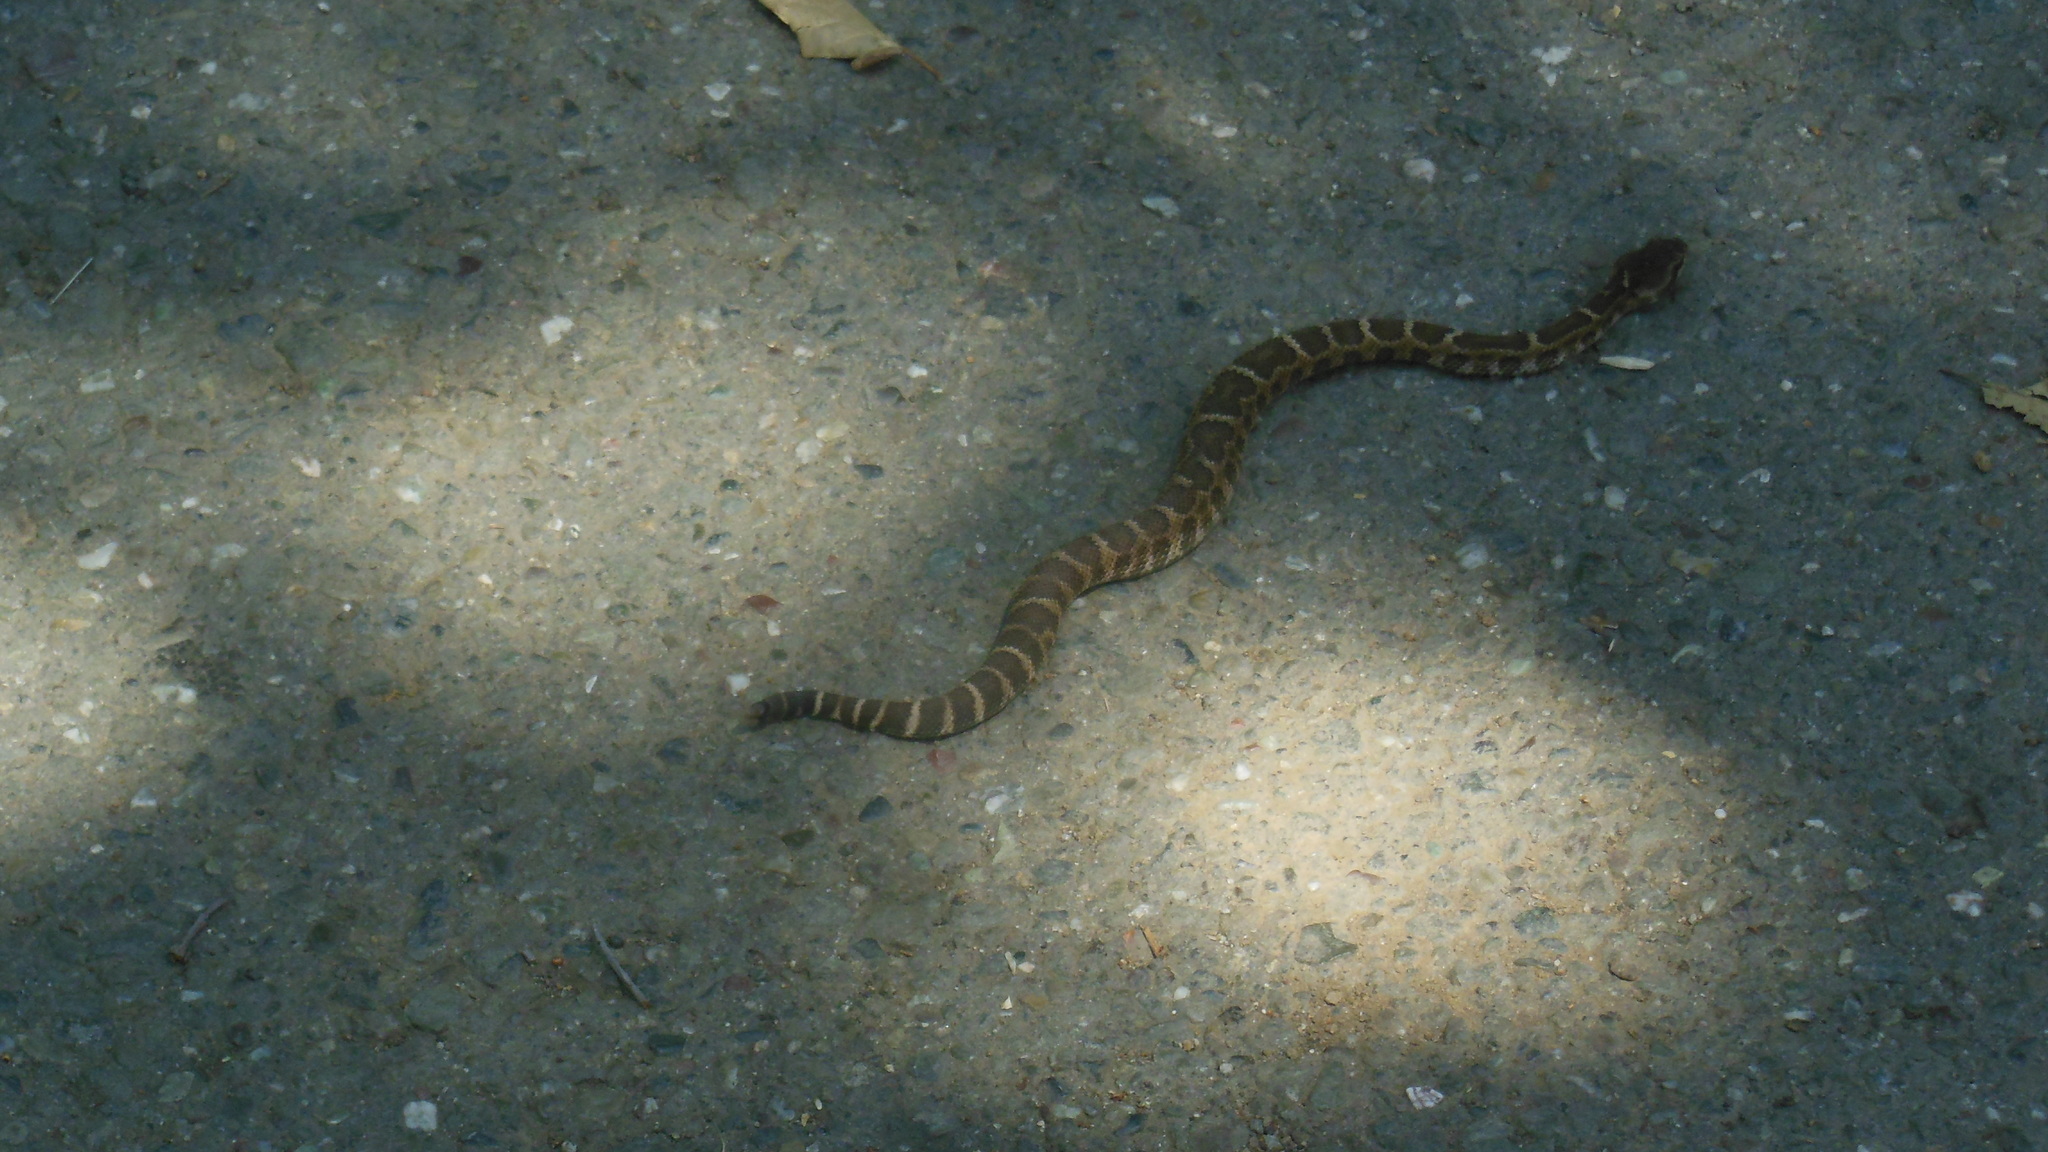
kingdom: Animalia
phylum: Chordata
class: Squamata
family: Viperidae
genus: Crotalus
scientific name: Crotalus oreganus
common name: Abyssus
